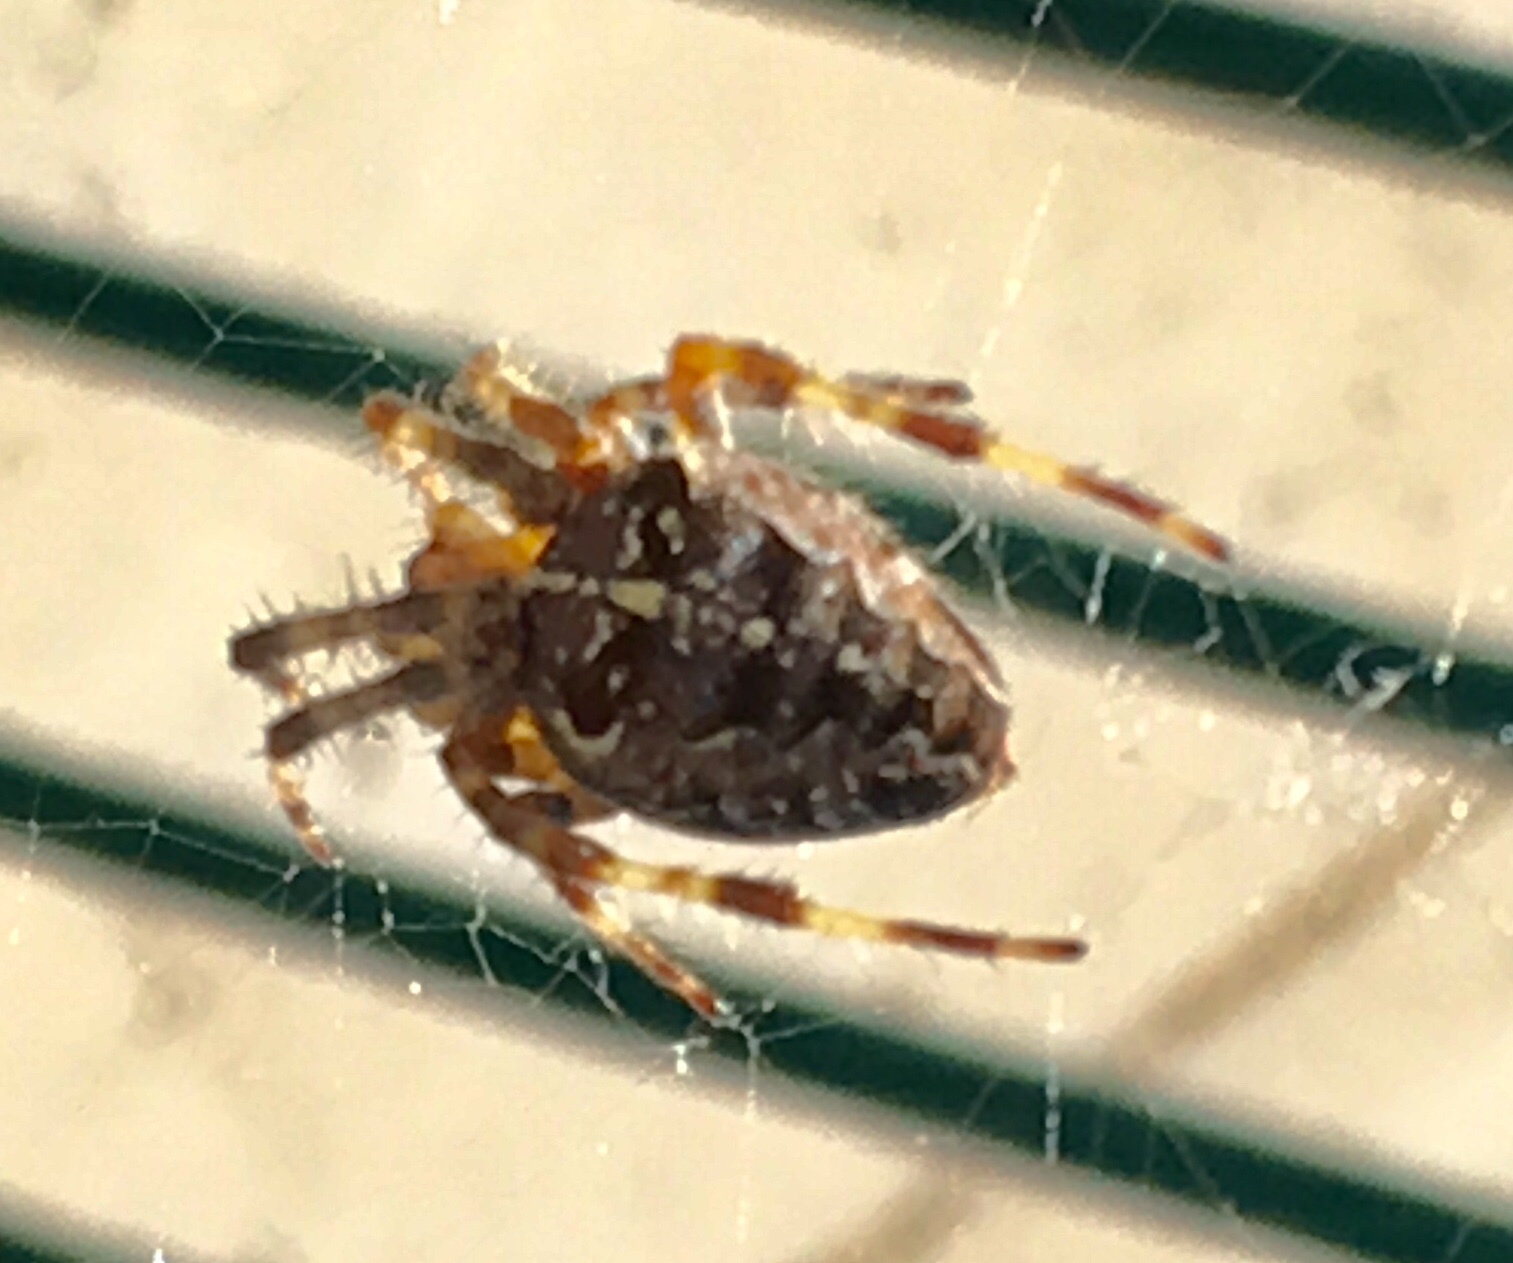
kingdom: Animalia
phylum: Arthropoda
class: Arachnida
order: Araneae
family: Araneidae
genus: Araneus
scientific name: Araneus diadematus
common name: Cross orbweaver
